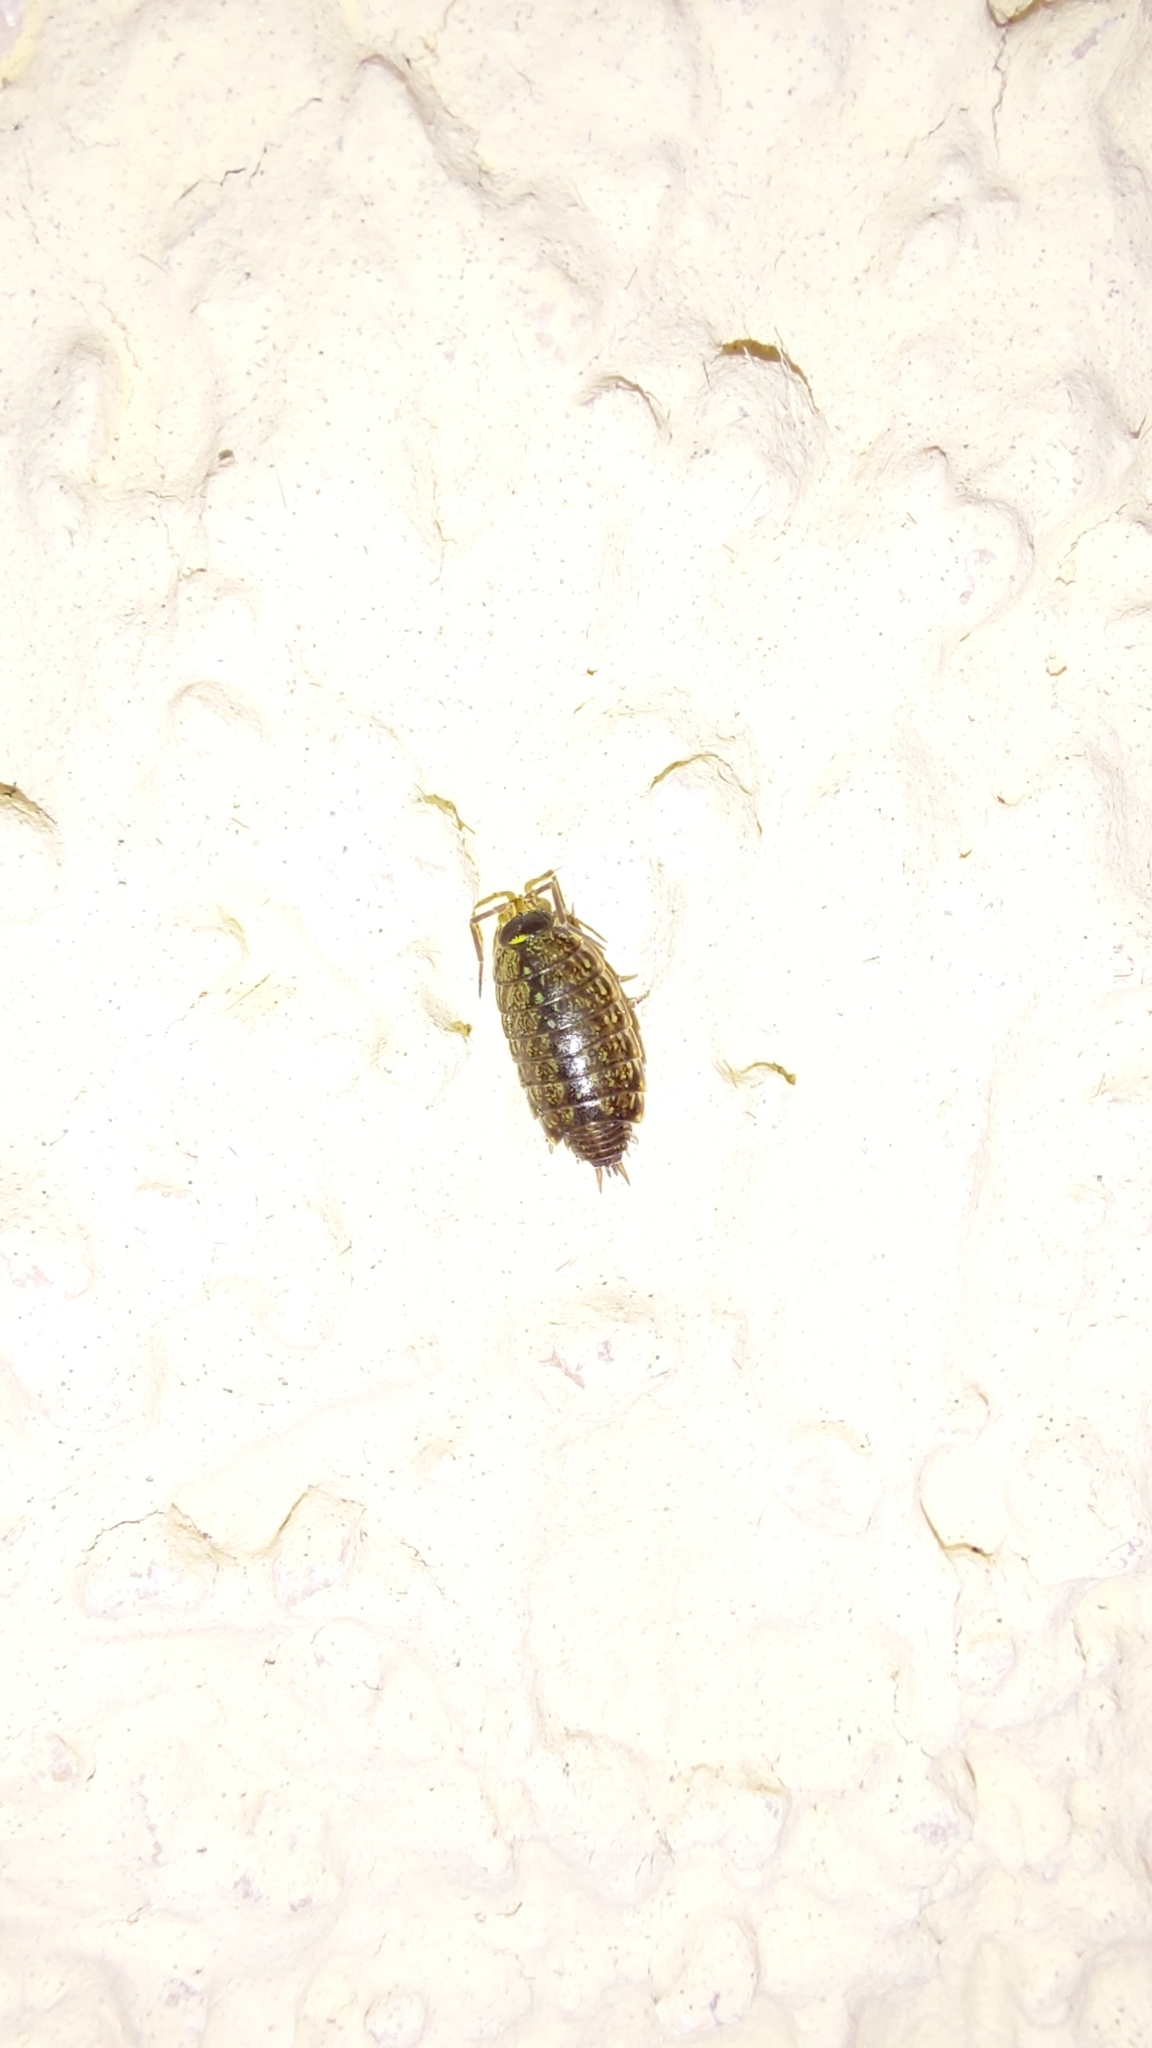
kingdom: Animalia
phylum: Arthropoda
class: Malacostraca
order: Isopoda
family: Philosciidae
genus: Philoscia
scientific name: Philoscia muscorum
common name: Common striped woodlouse
